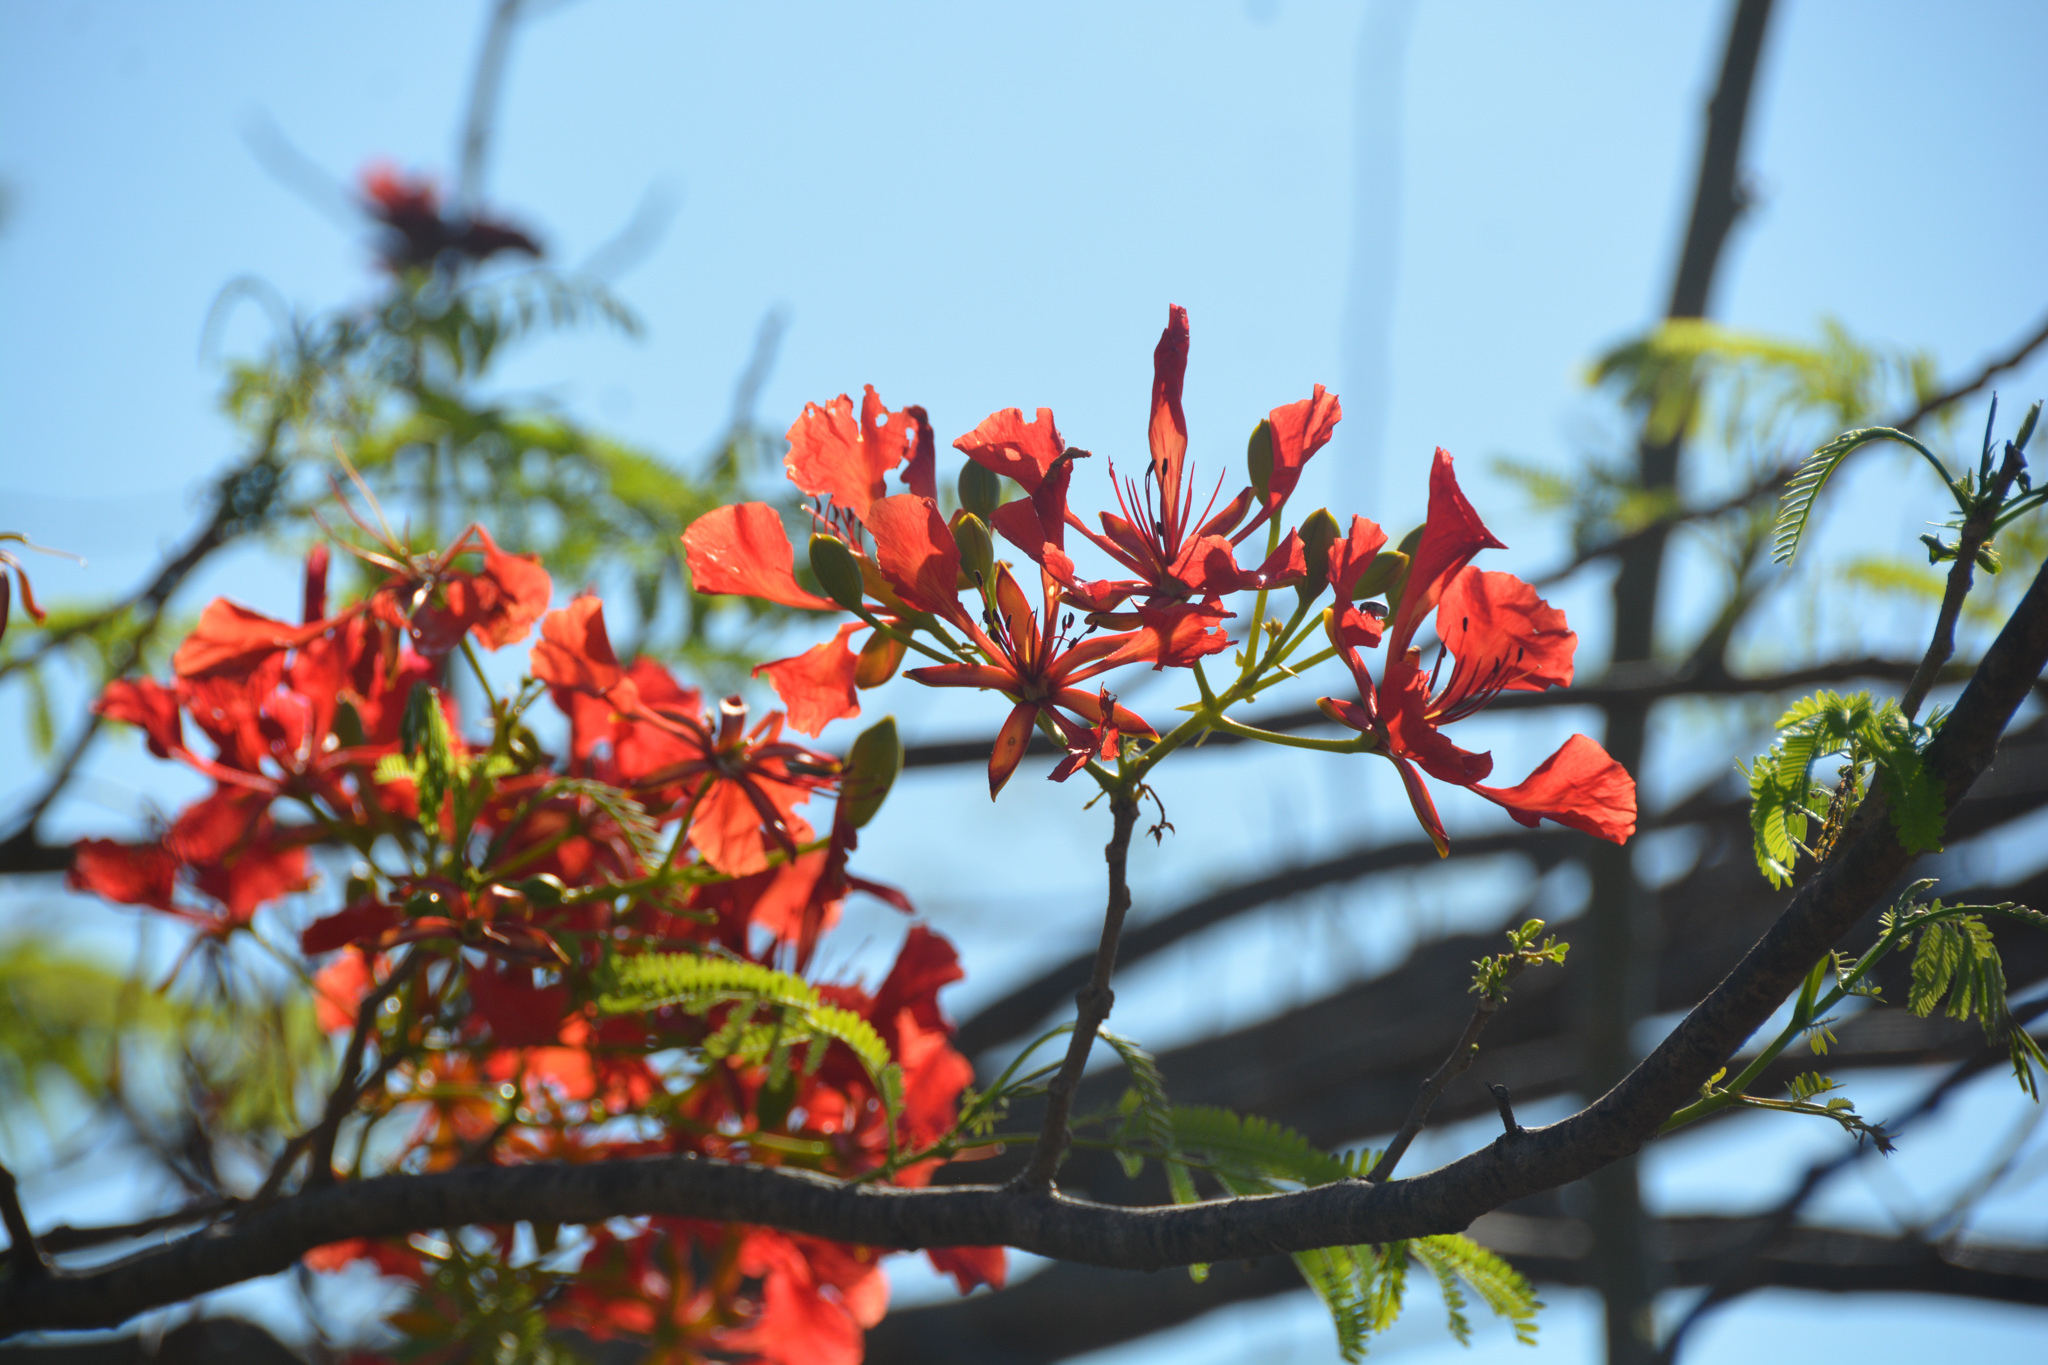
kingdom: Plantae
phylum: Tracheophyta
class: Magnoliopsida
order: Fabales
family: Fabaceae
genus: Delonix
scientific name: Delonix regia
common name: Royal poinciana
